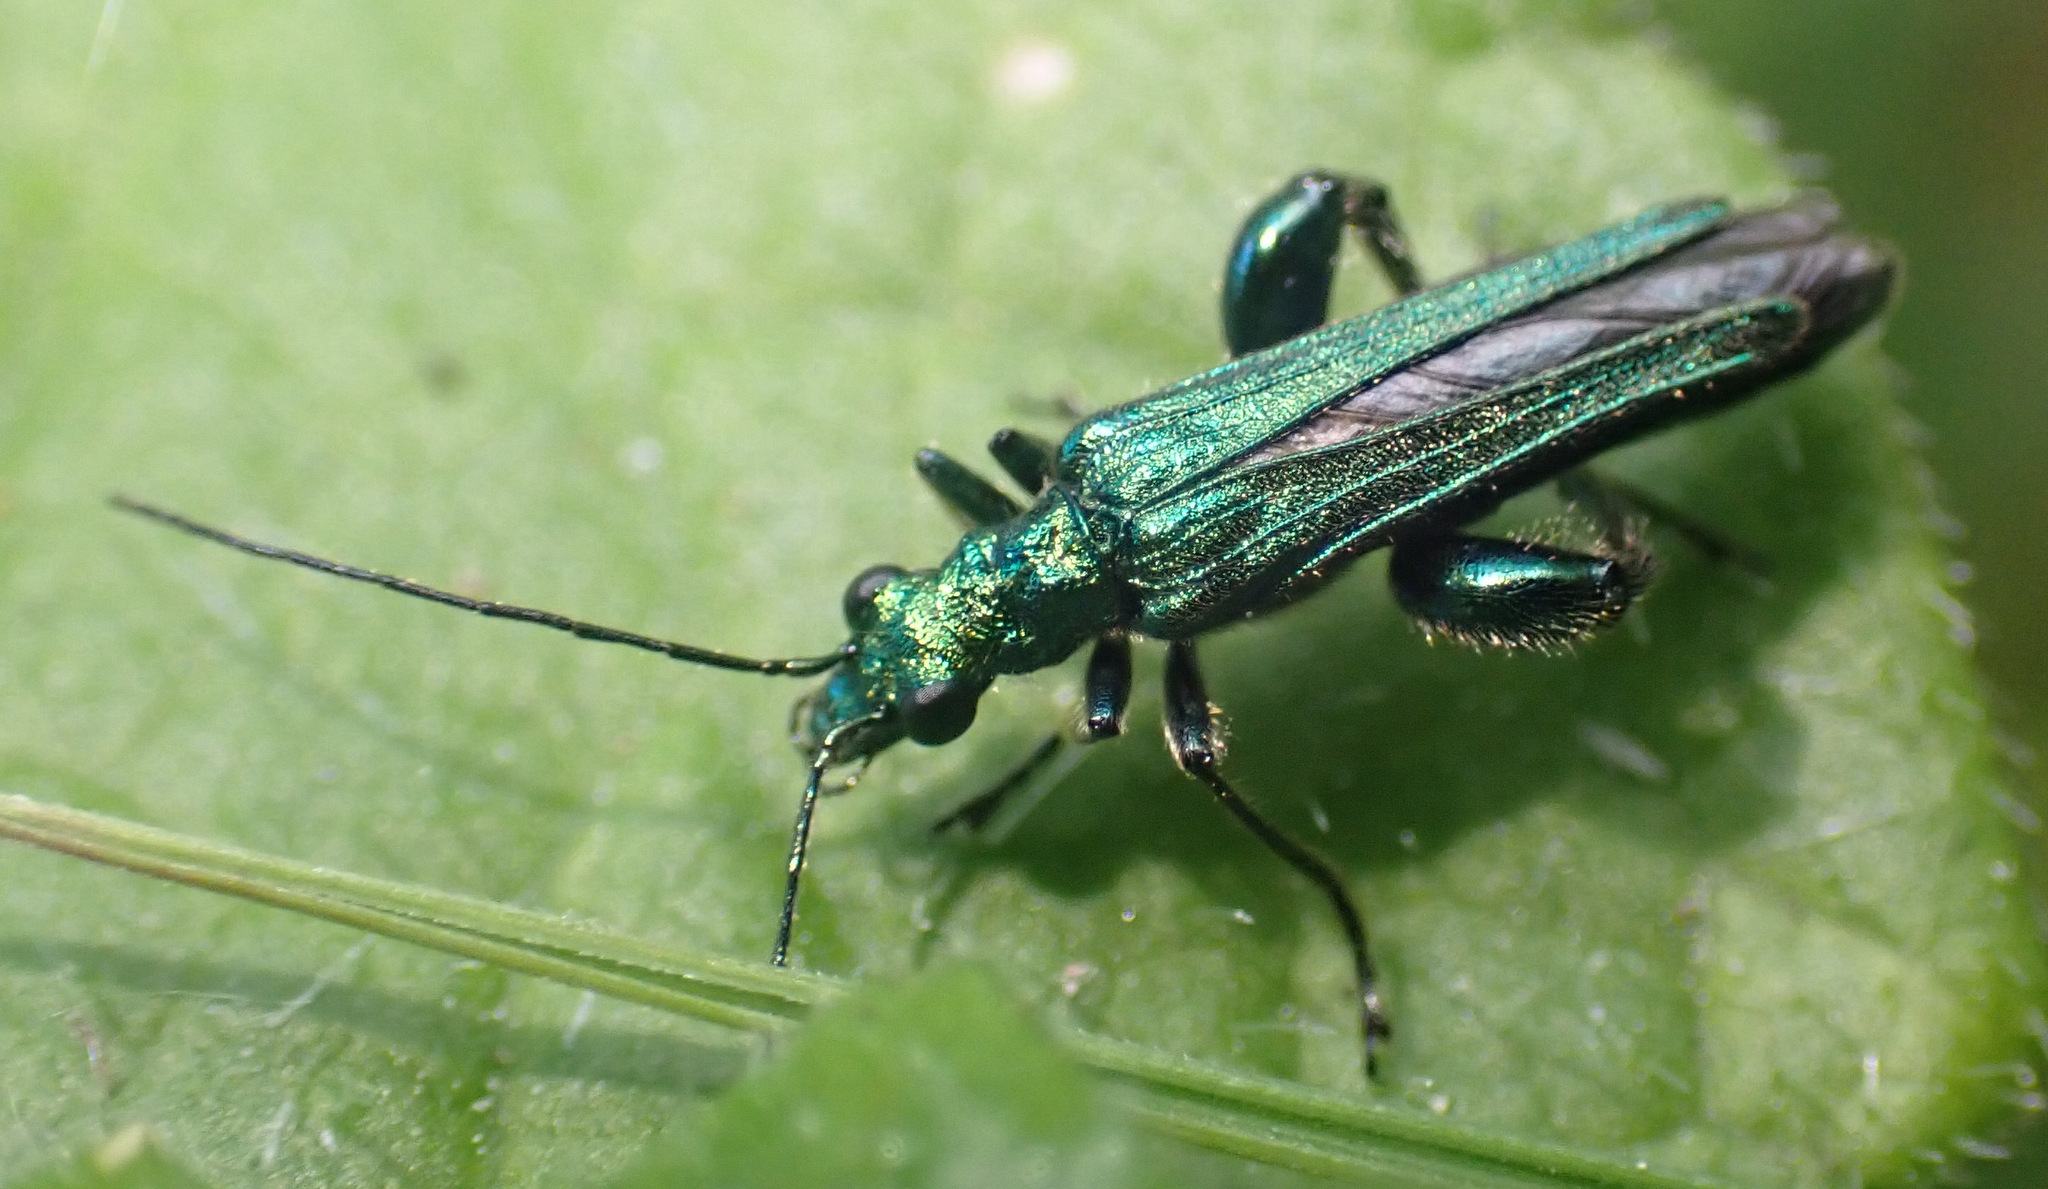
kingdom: Animalia
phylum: Arthropoda
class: Insecta
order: Coleoptera
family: Oedemeridae
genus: Oedemera
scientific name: Oedemera nobilis
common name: Swollen-thighed beetle
